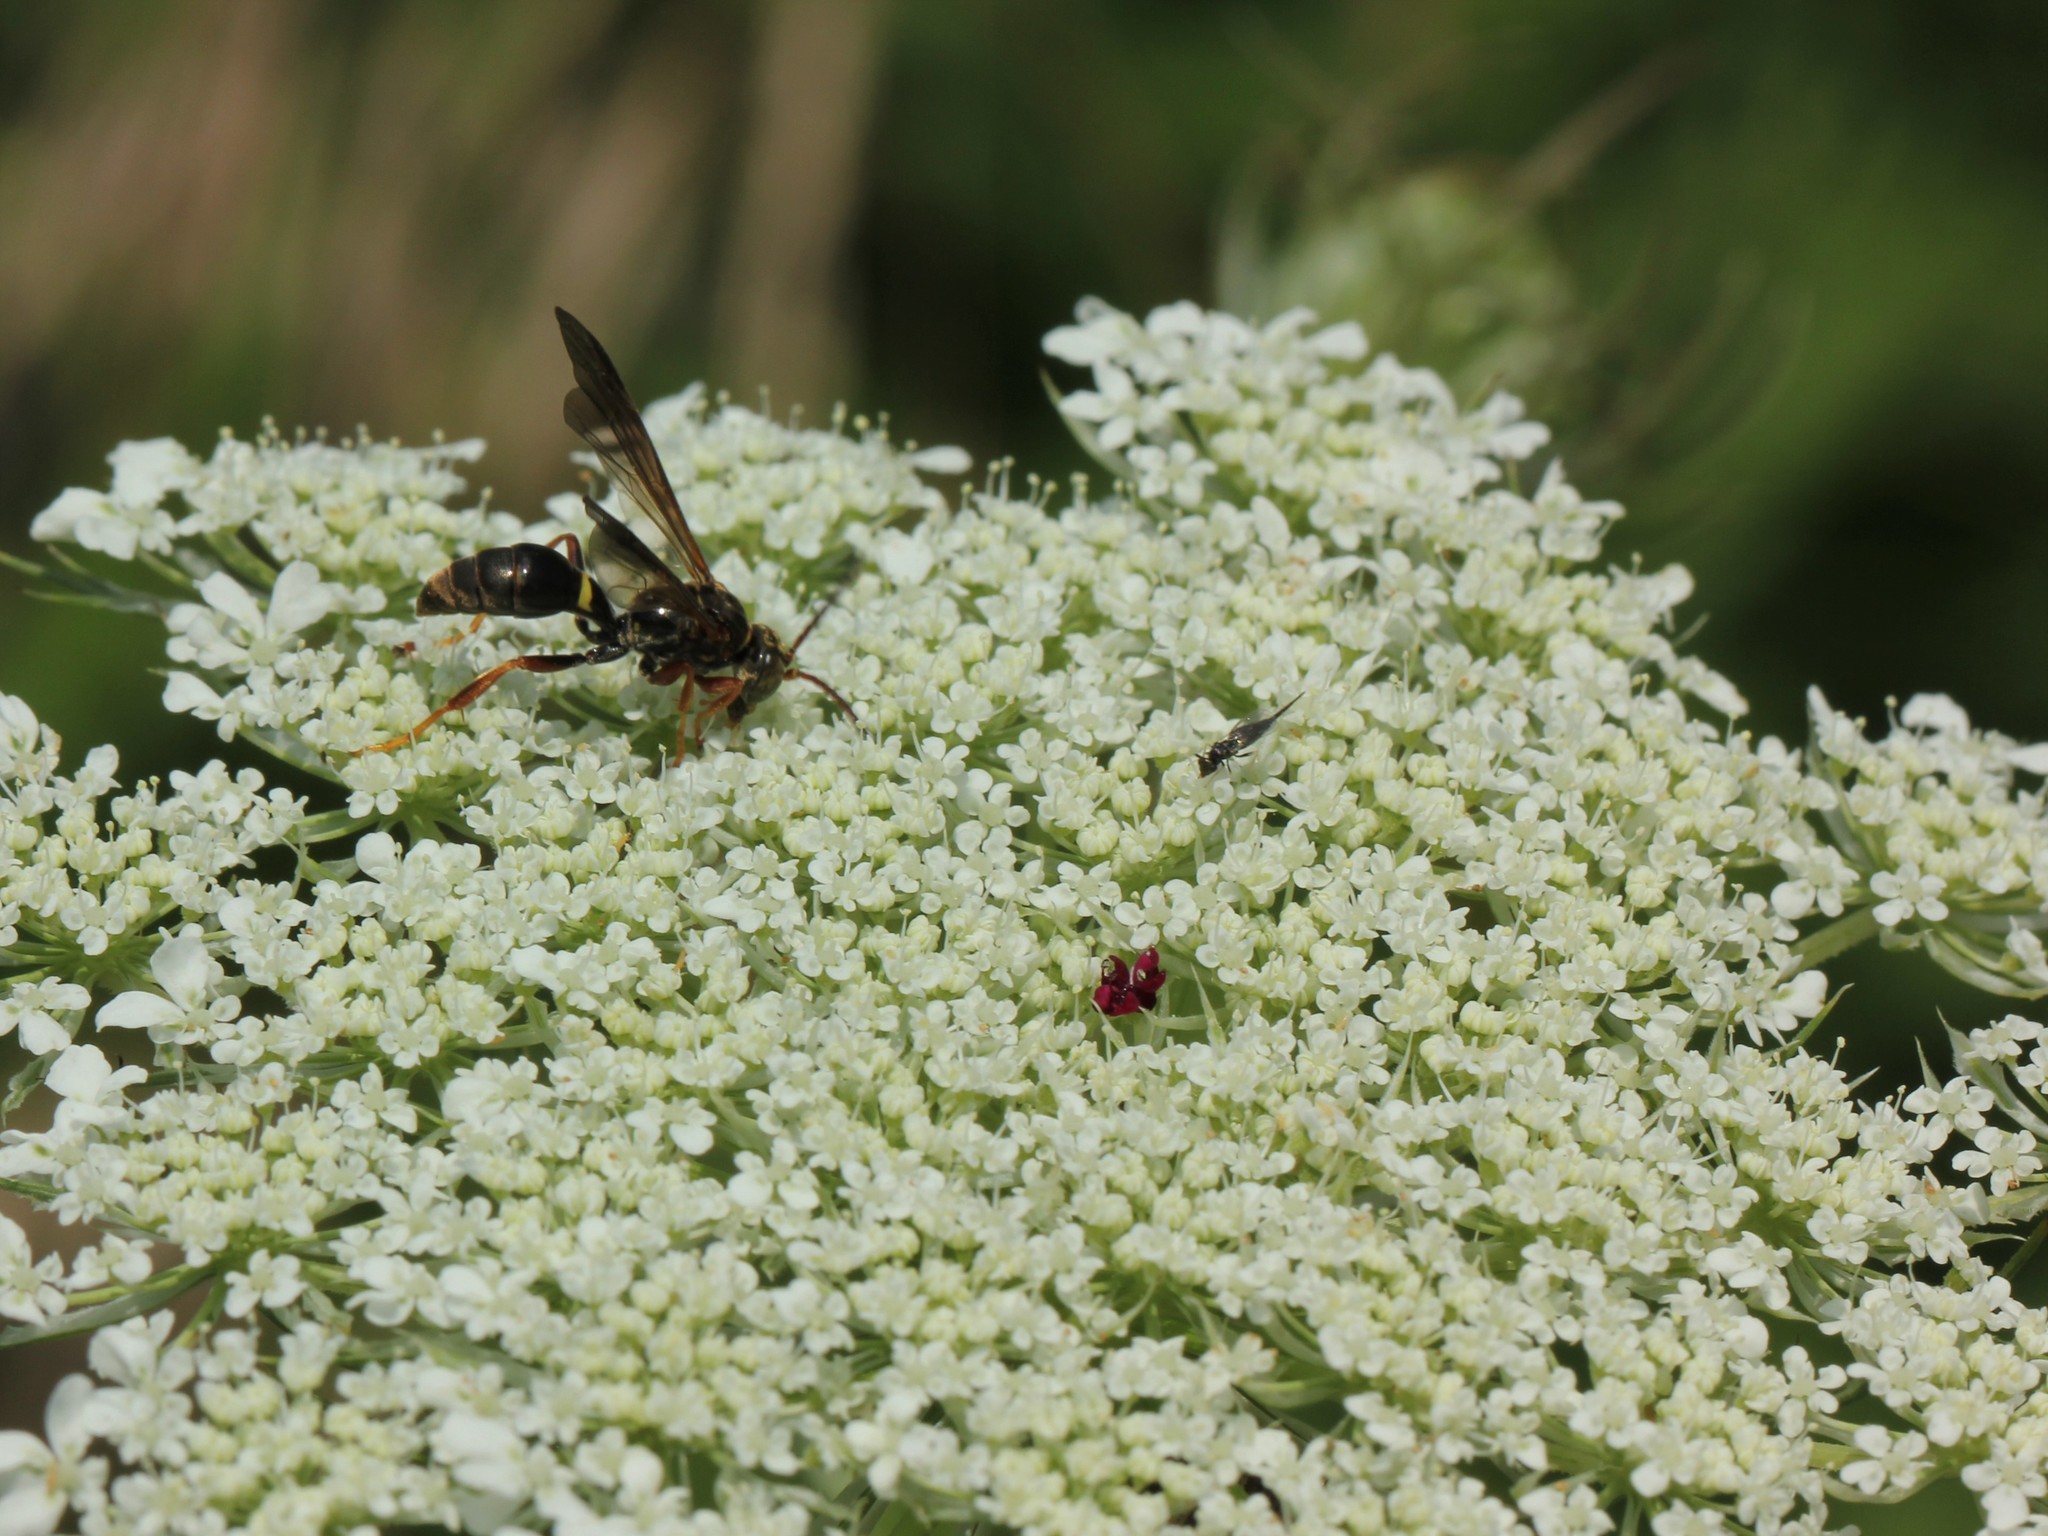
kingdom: Animalia
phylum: Arthropoda
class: Insecta
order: Hymenoptera
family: Crabronidae
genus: Saygorytes
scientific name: Saygorytes phaleratus
